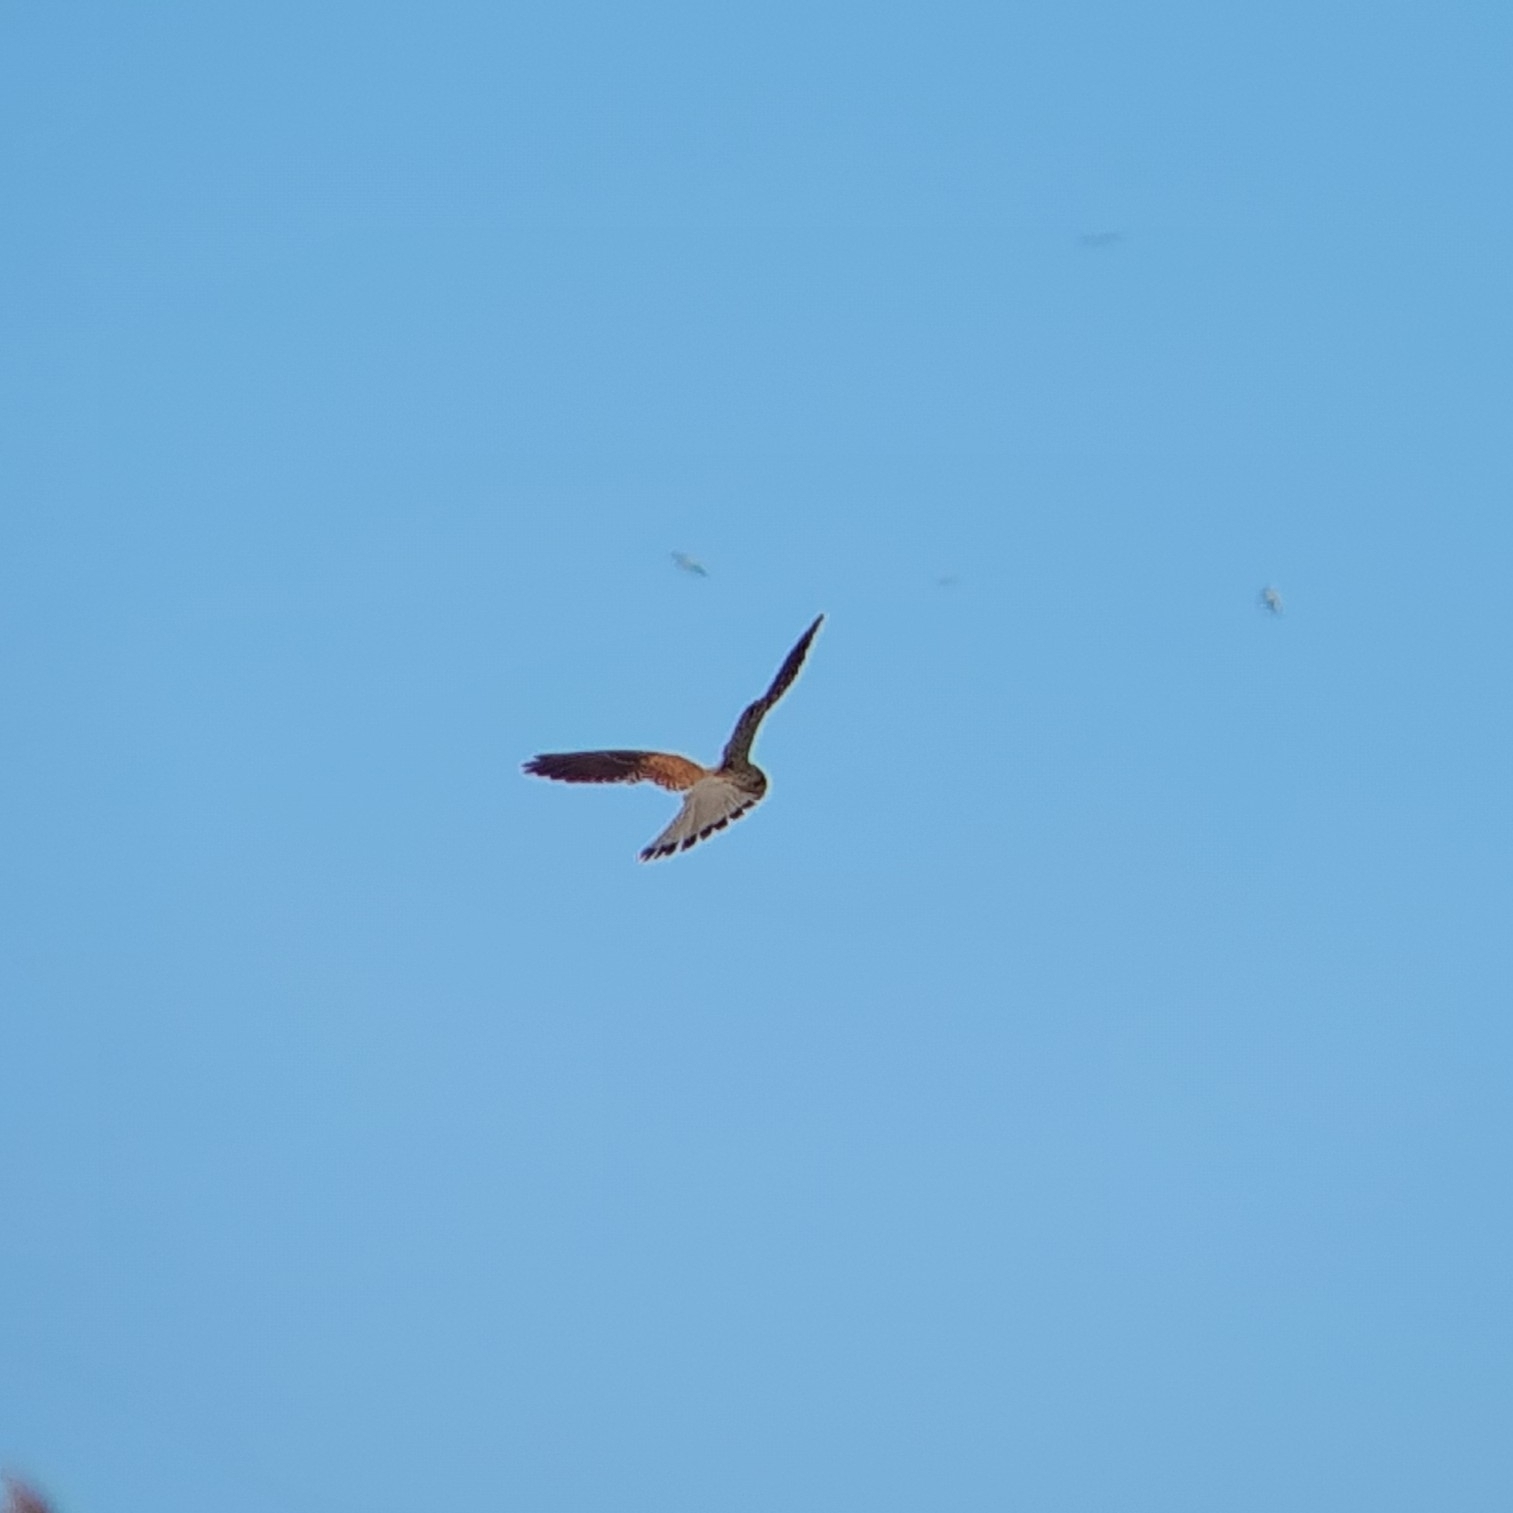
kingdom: Animalia
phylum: Chordata
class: Aves
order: Falconiformes
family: Falconidae
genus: Falco
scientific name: Falco tinnunculus
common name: Common kestrel
